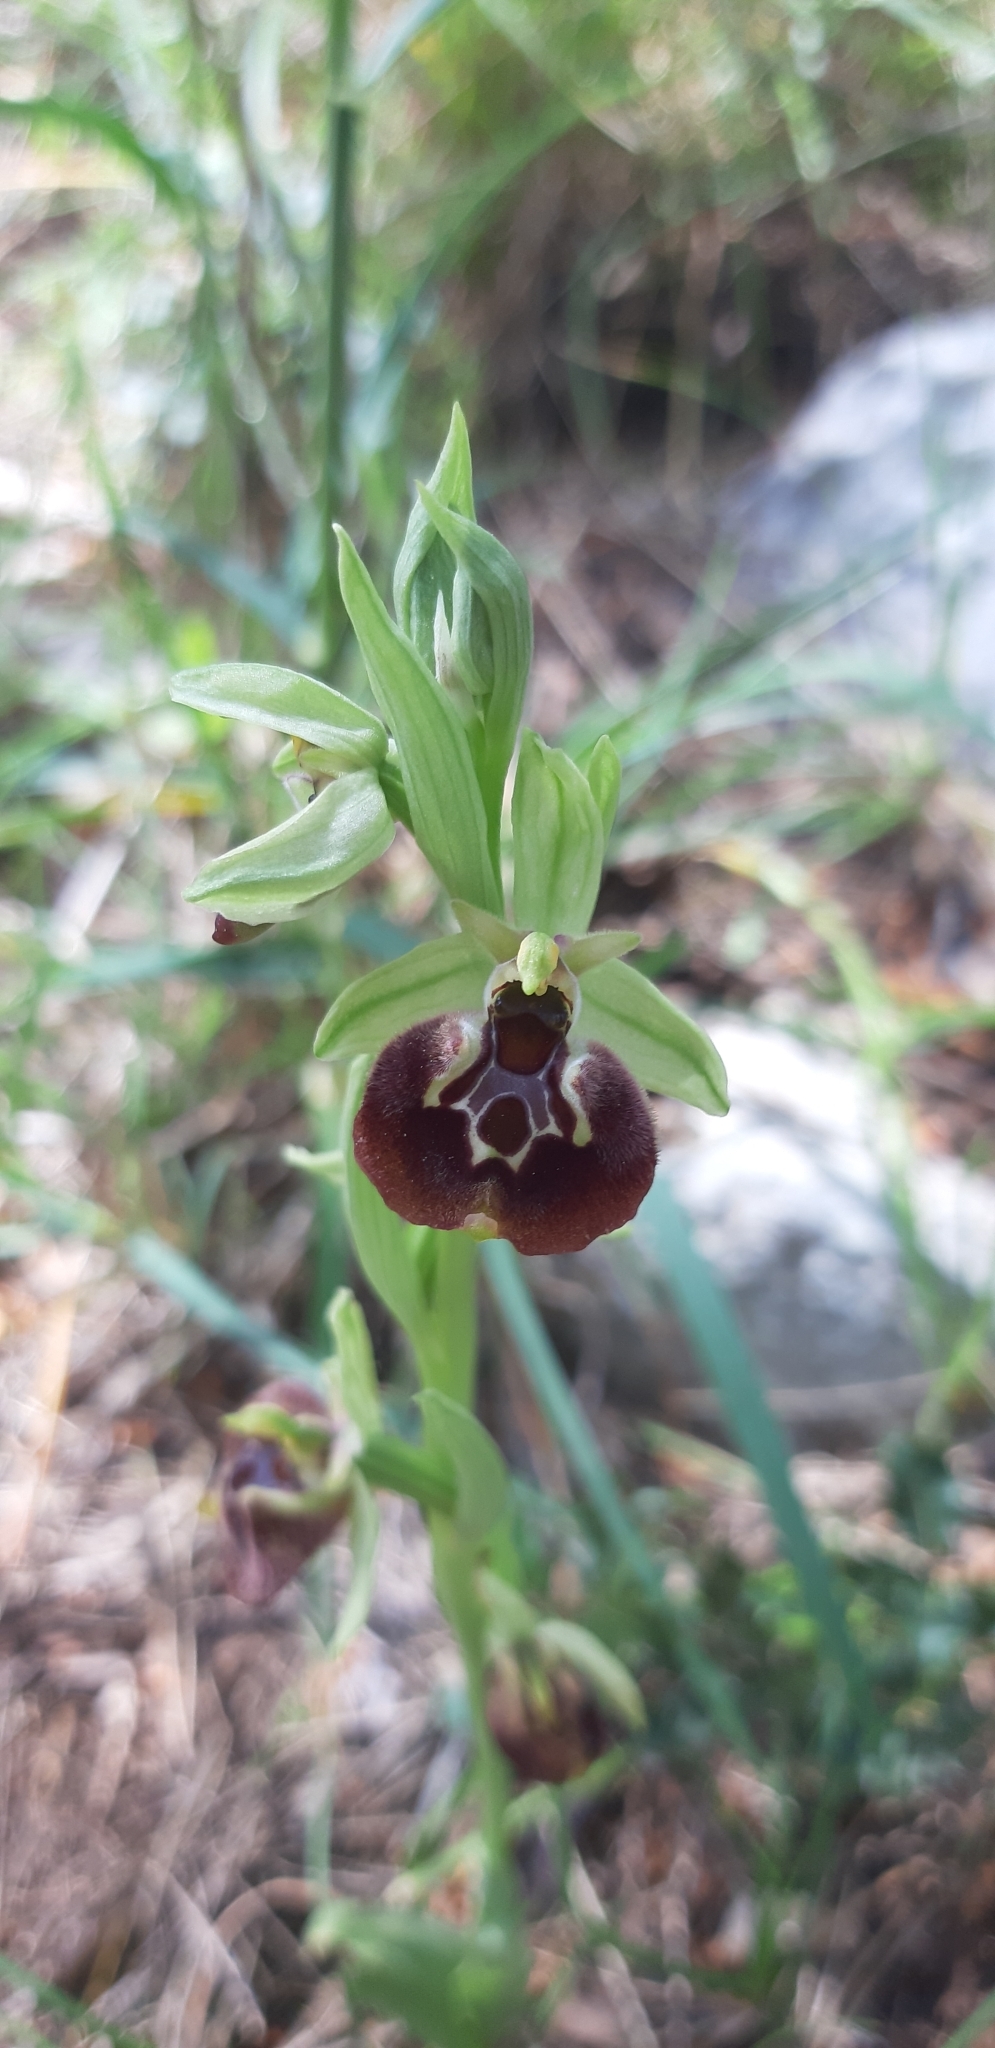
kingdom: Plantae
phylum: Tracheophyta
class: Liliopsida
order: Asparagales
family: Orchidaceae
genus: Ophrys
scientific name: Ophrys holosericea
